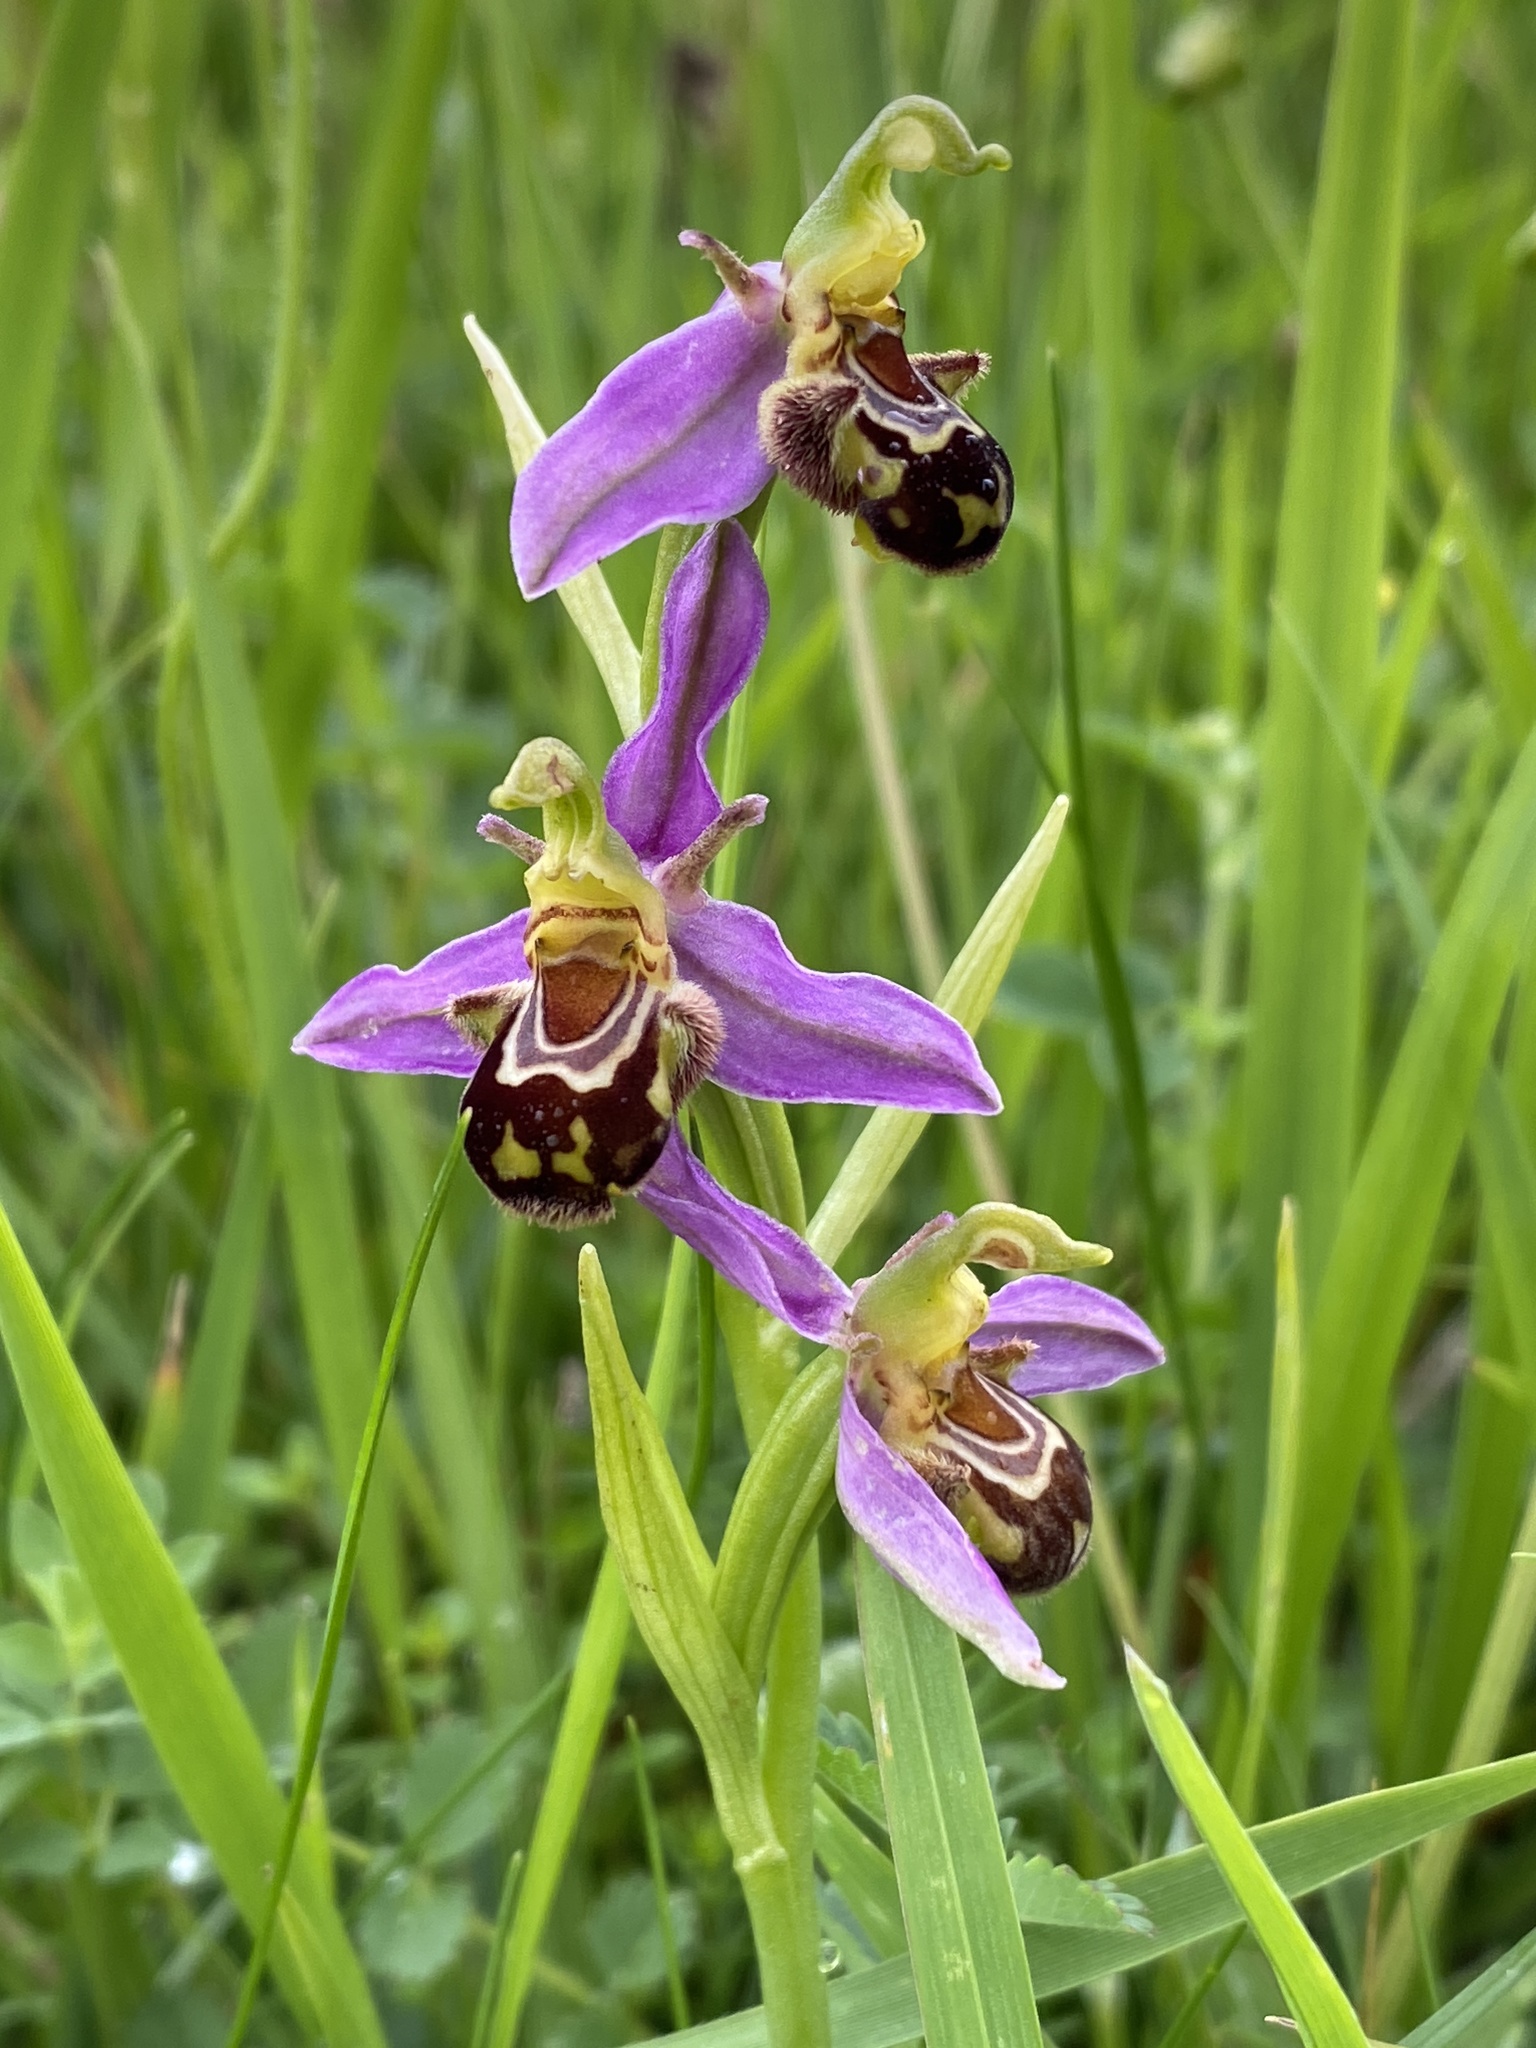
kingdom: Plantae
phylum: Tracheophyta
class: Liliopsida
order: Asparagales
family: Orchidaceae
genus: Ophrys
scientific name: Ophrys apifera
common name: Bee orchid
